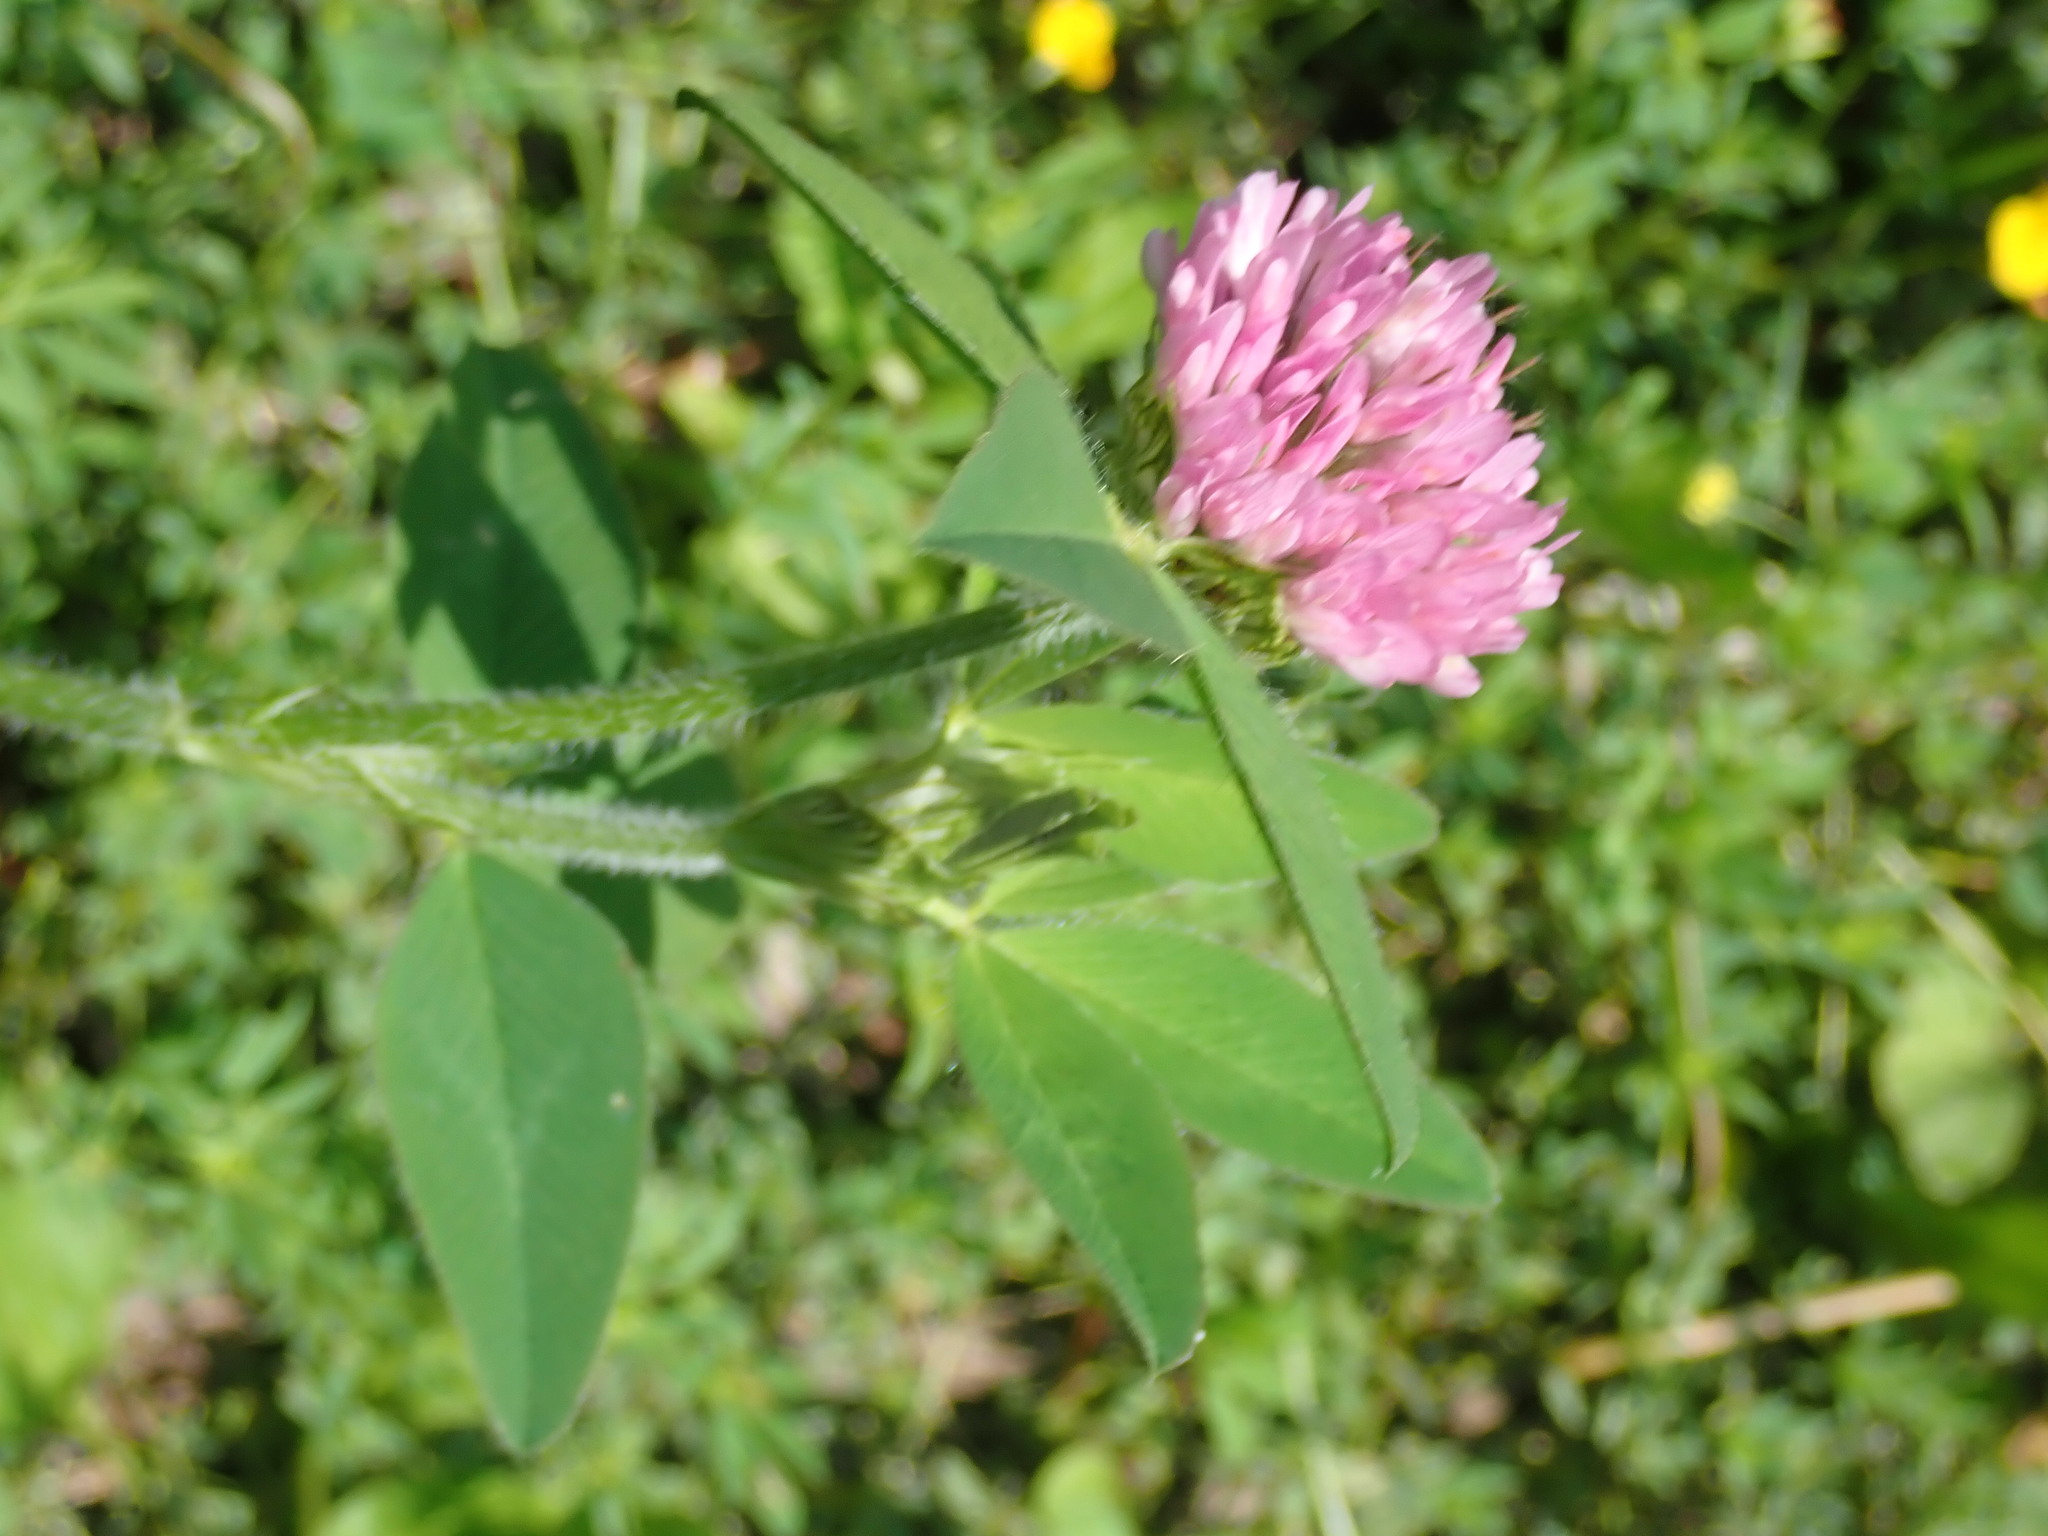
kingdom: Plantae
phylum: Tracheophyta
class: Magnoliopsida
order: Fabales
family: Fabaceae
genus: Trifolium
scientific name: Trifolium pratense
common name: Red clover
